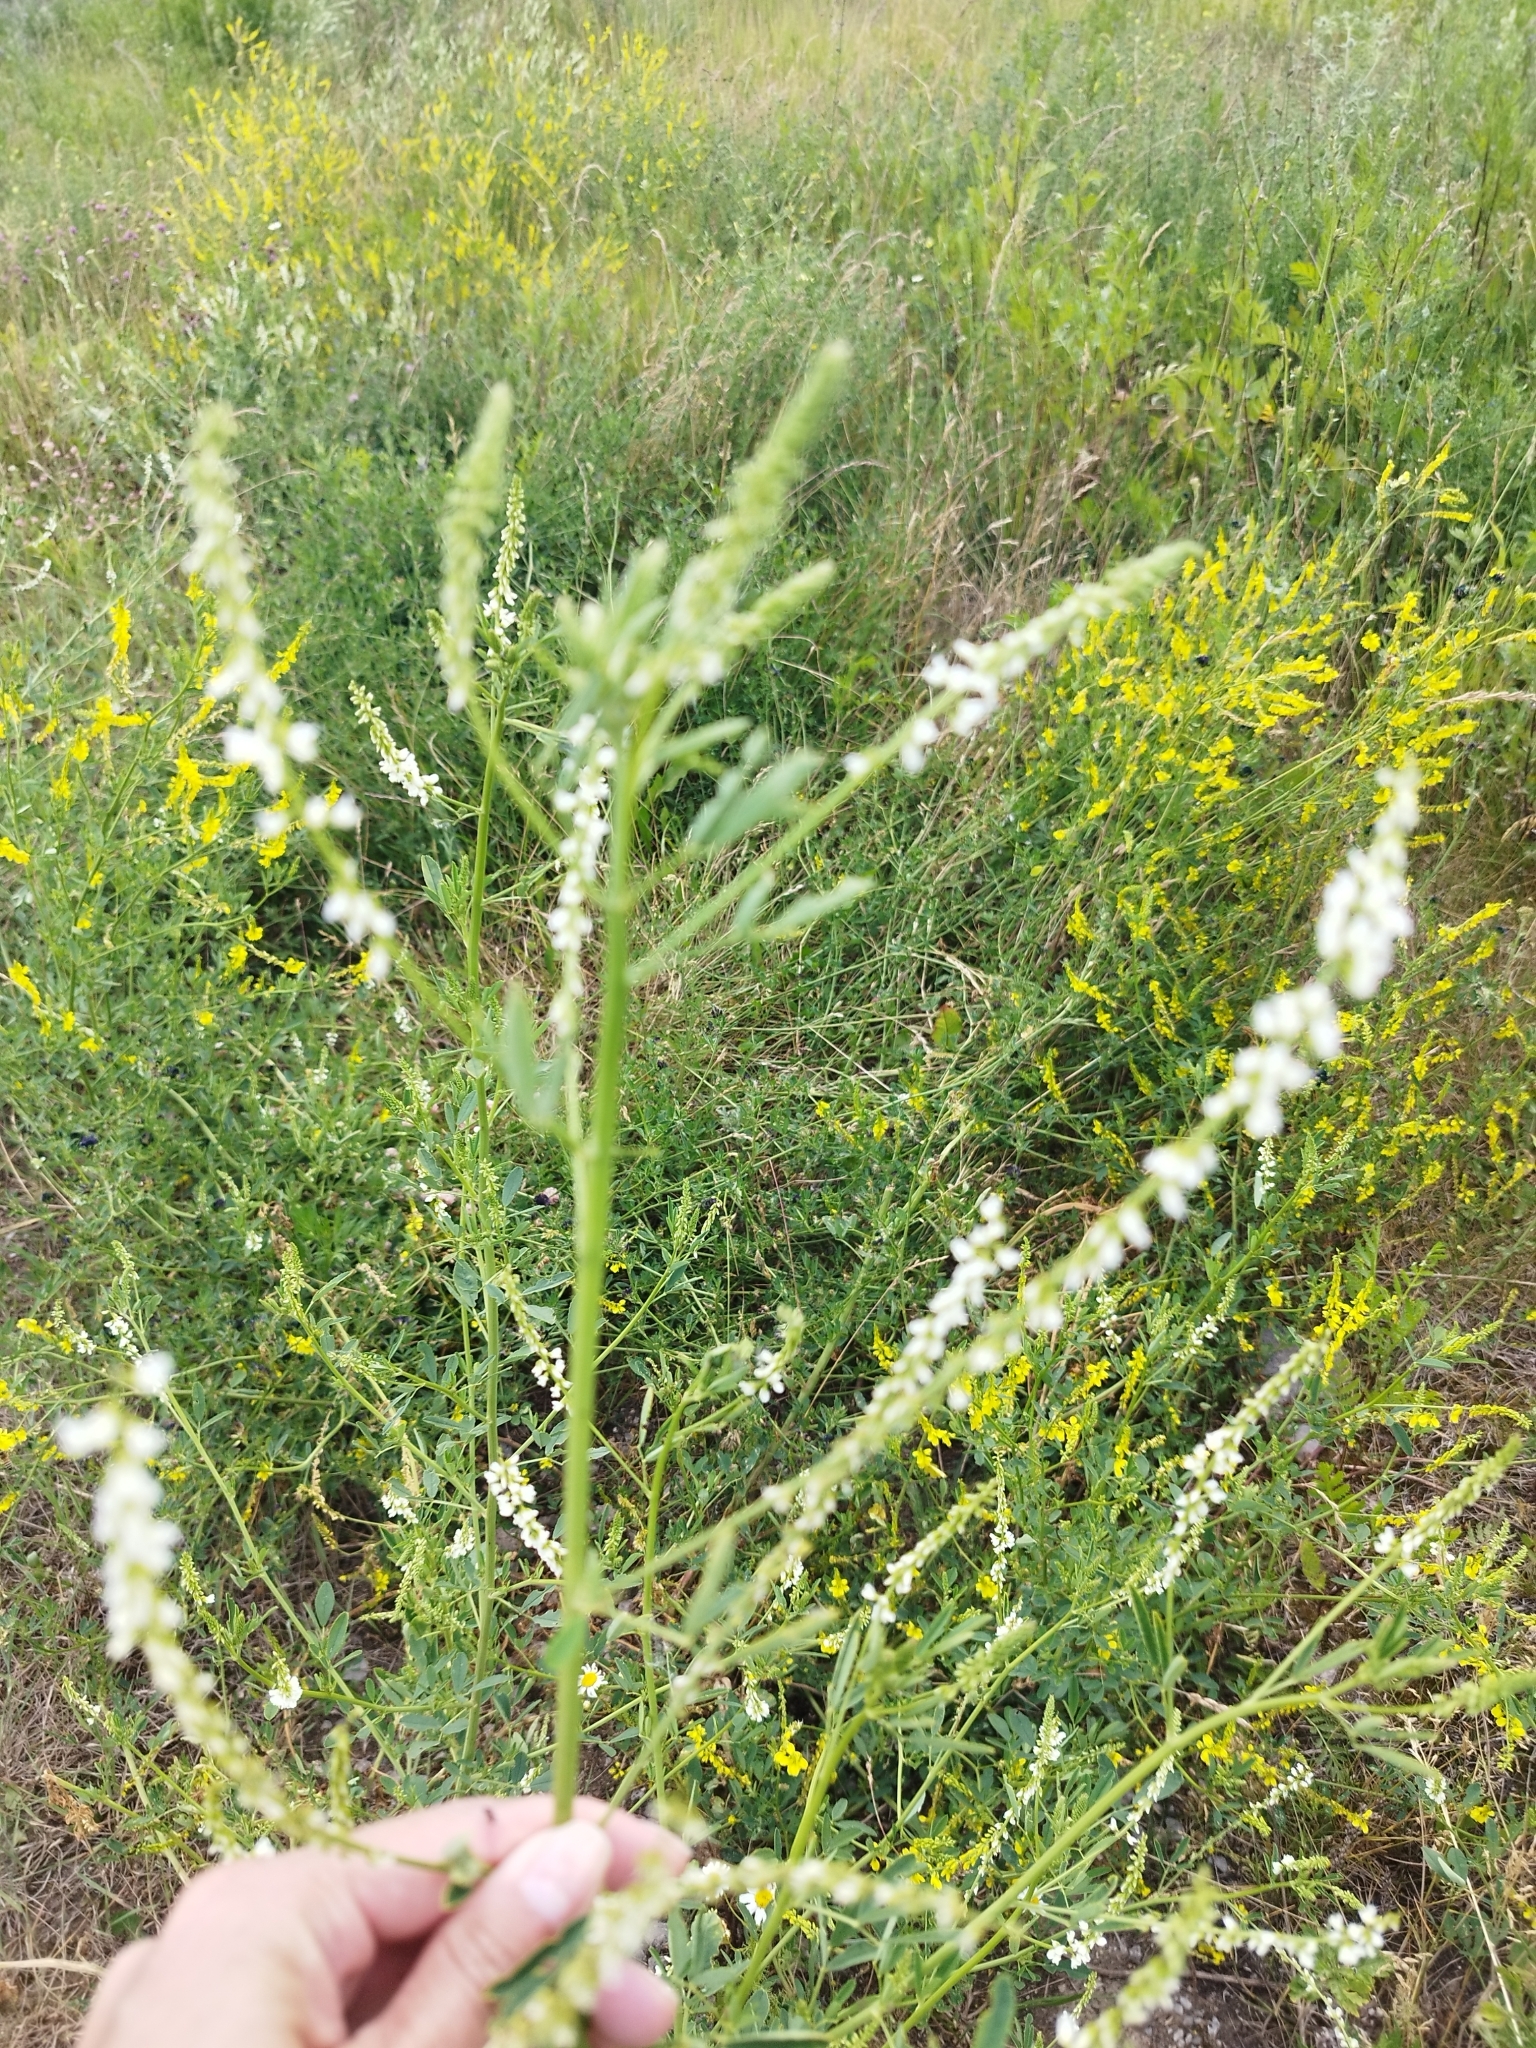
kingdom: Plantae
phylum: Tracheophyta
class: Magnoliopsida
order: Fabales
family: Fabaceae
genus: Melilotus
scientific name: Melilotus albus
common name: White melilot
